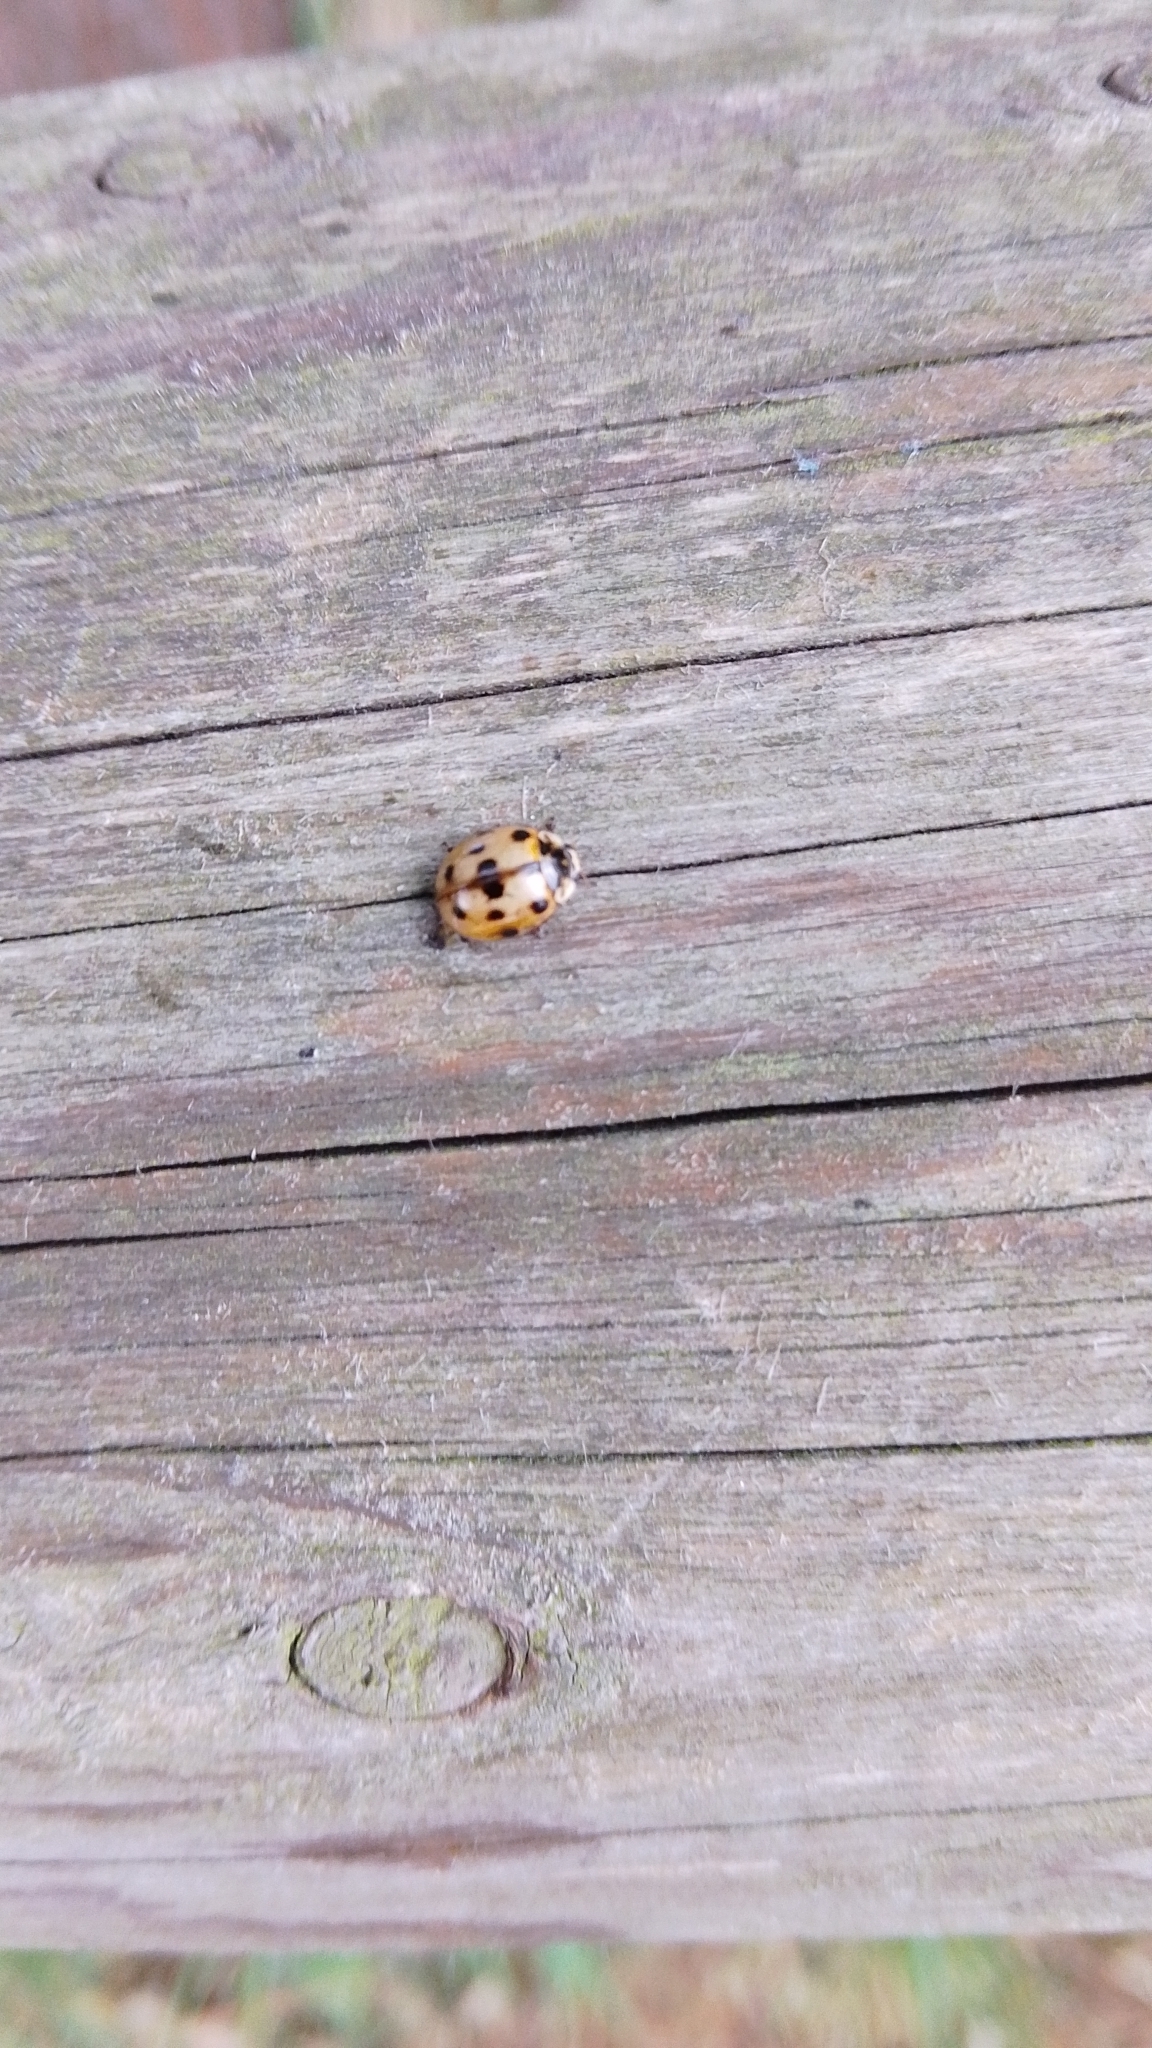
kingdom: Animalia
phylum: Arthropoda
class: Insecta
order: Coleoptera
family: Coccinellidae
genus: Adalia
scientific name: Adalia decempunctata
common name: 10-spot ladybird
